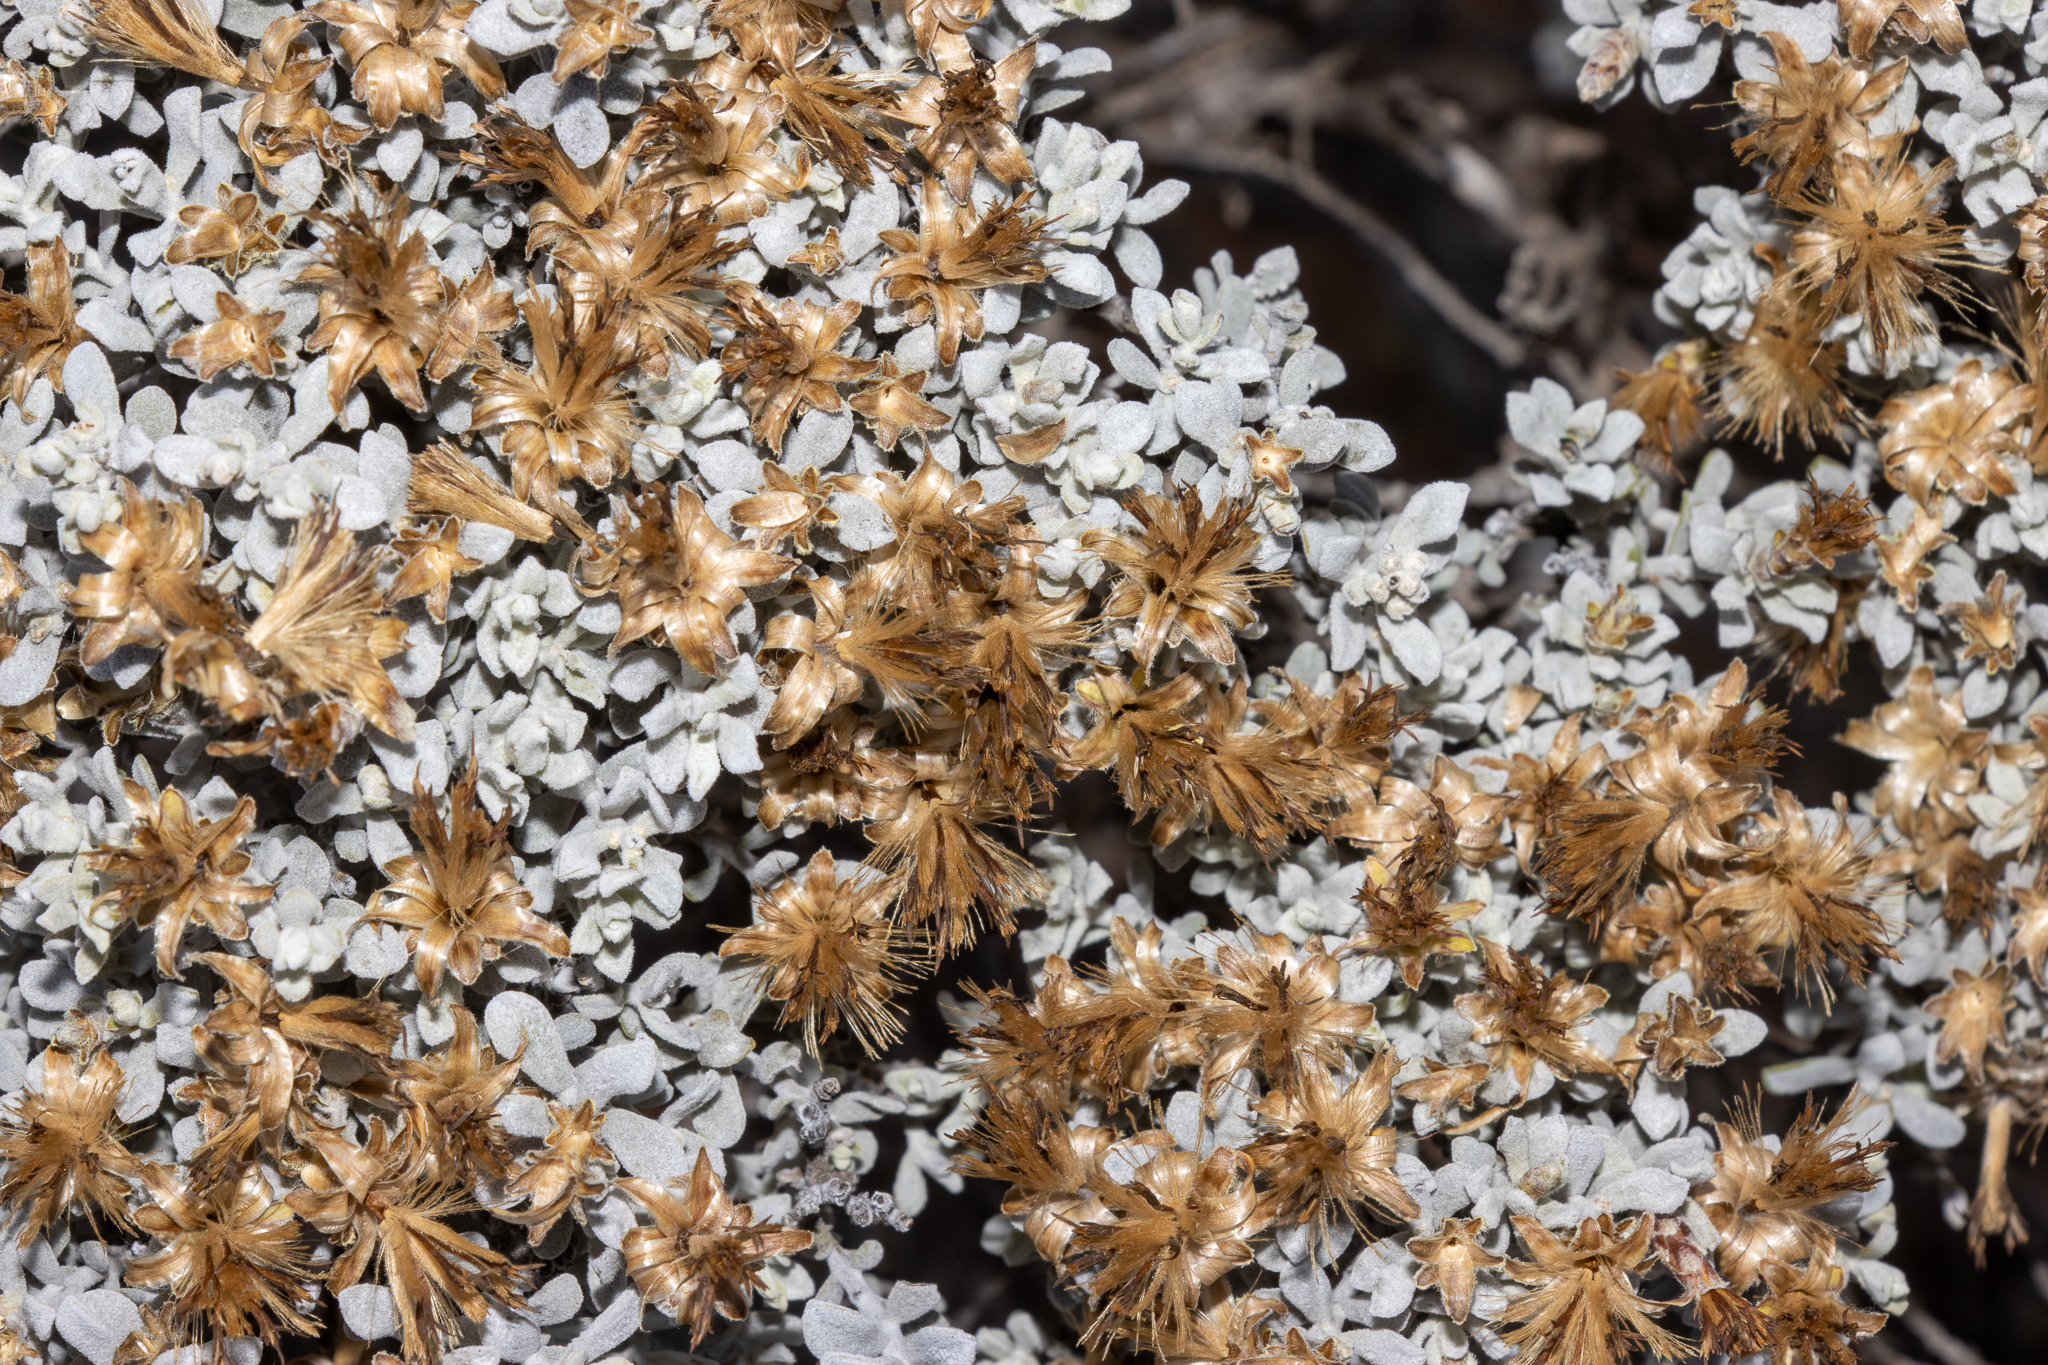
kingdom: Plantae
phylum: Tracheophyta
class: Magnoliopsida
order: Asterales
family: Asteraceae
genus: Cratystylis
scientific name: Cratystylis conocephala
